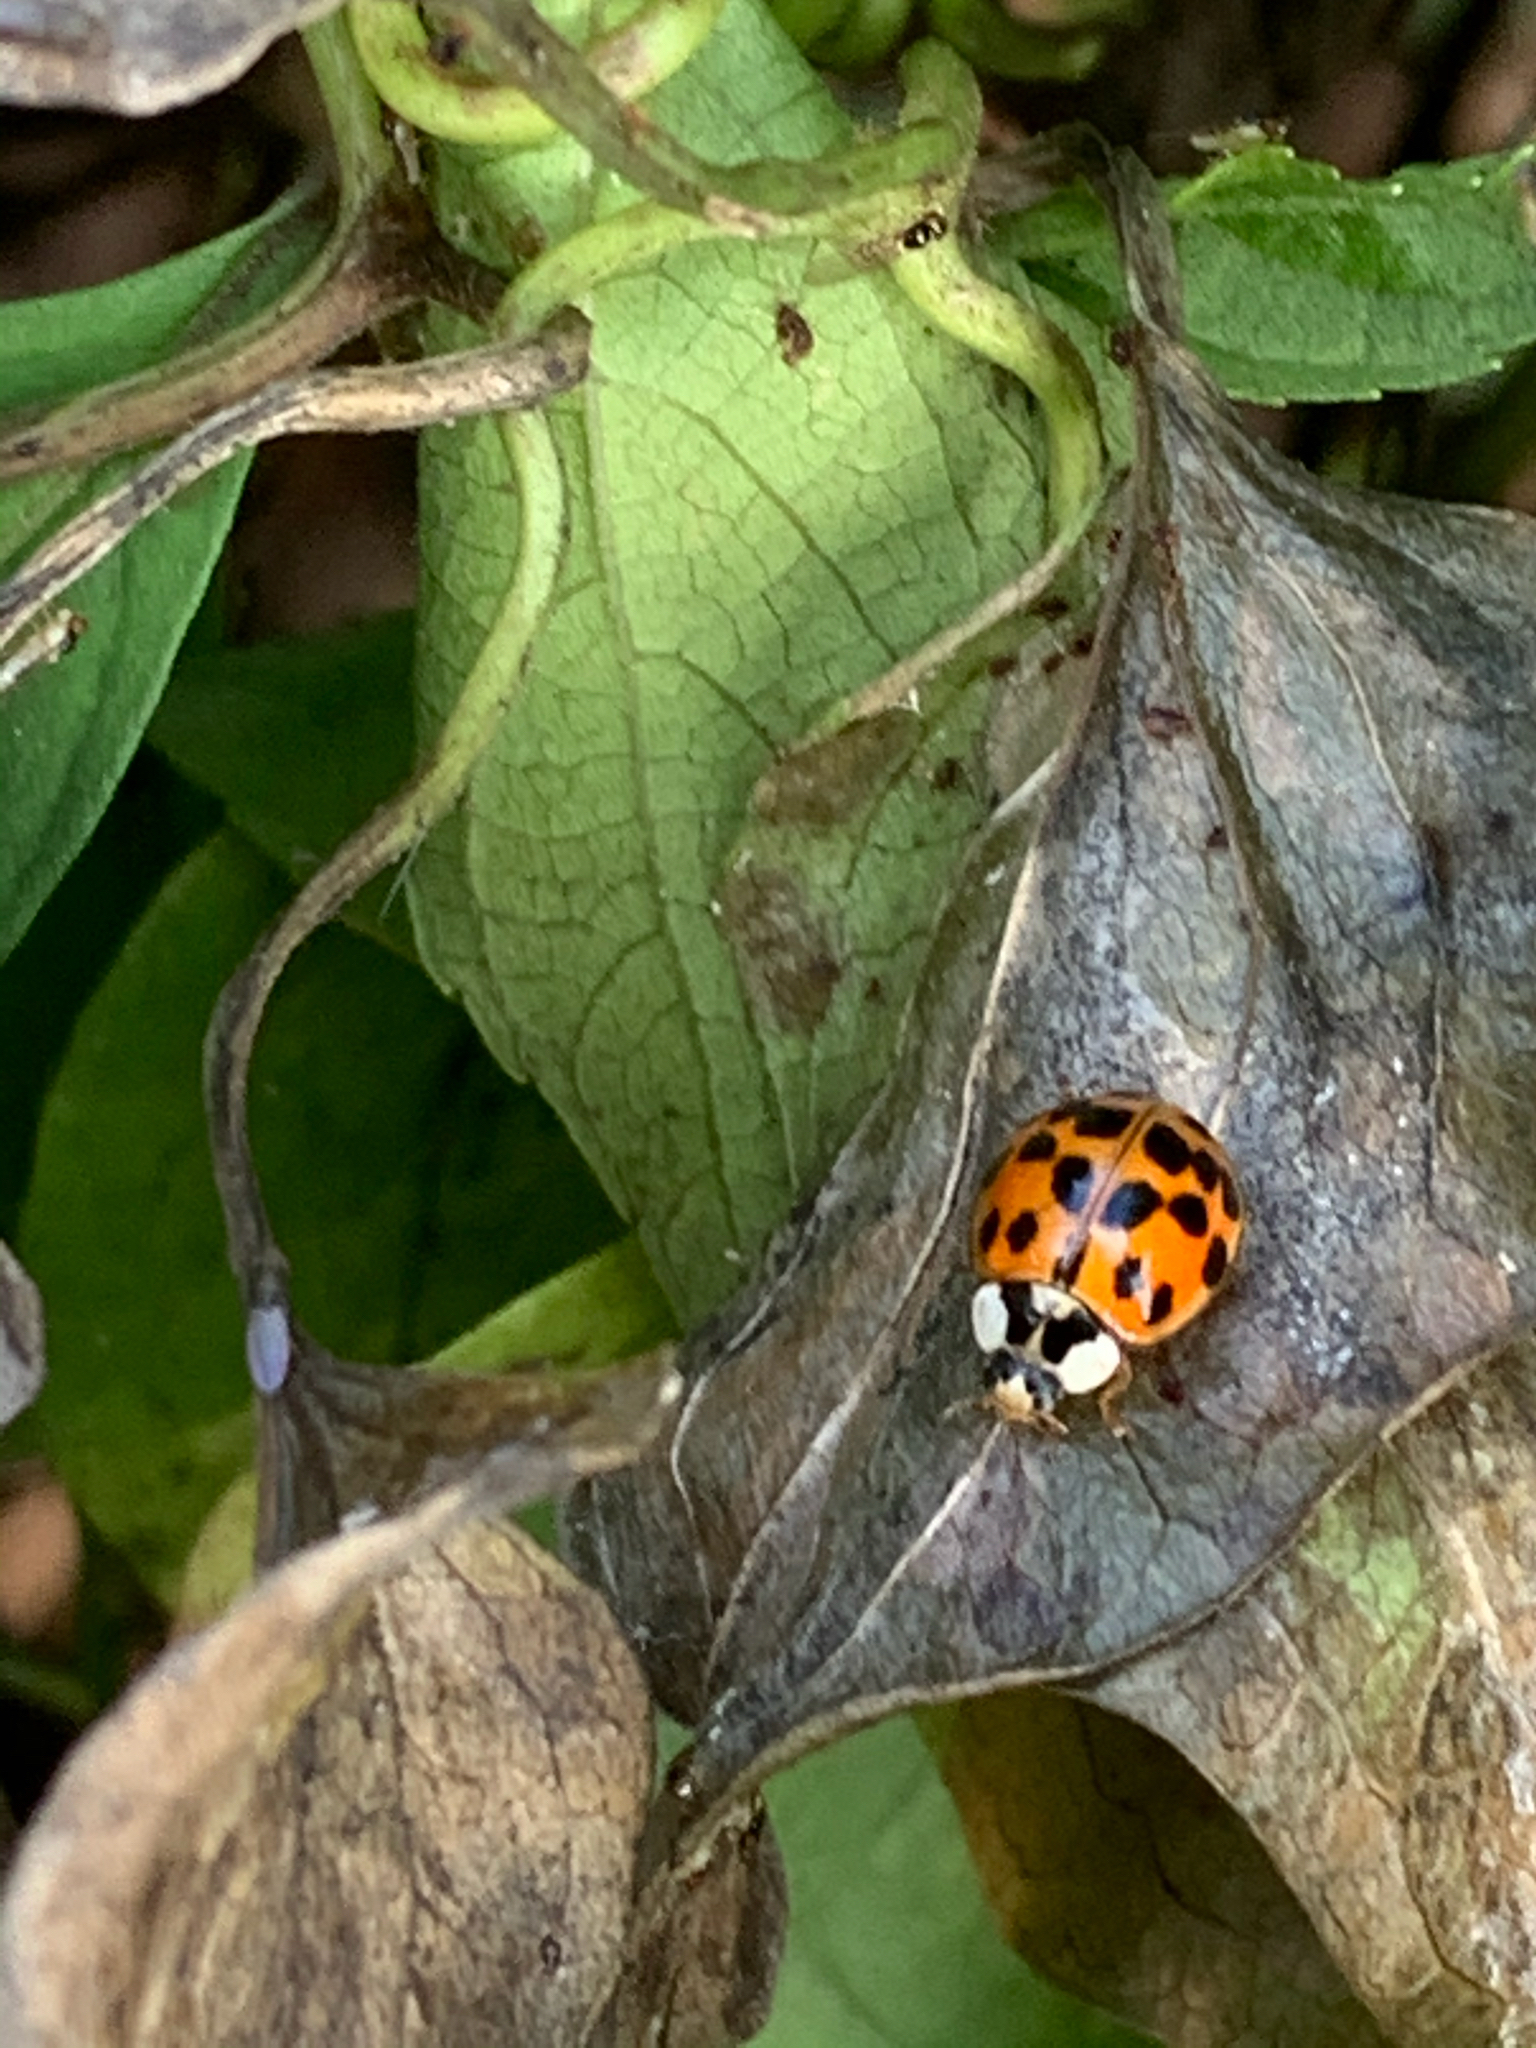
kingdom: Animalia
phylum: Arthropoda
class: Insecta
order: Coleoptera
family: Coccinellidae
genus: Harmonia
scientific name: Harmonia axyridis
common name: Harlequin ladybird
